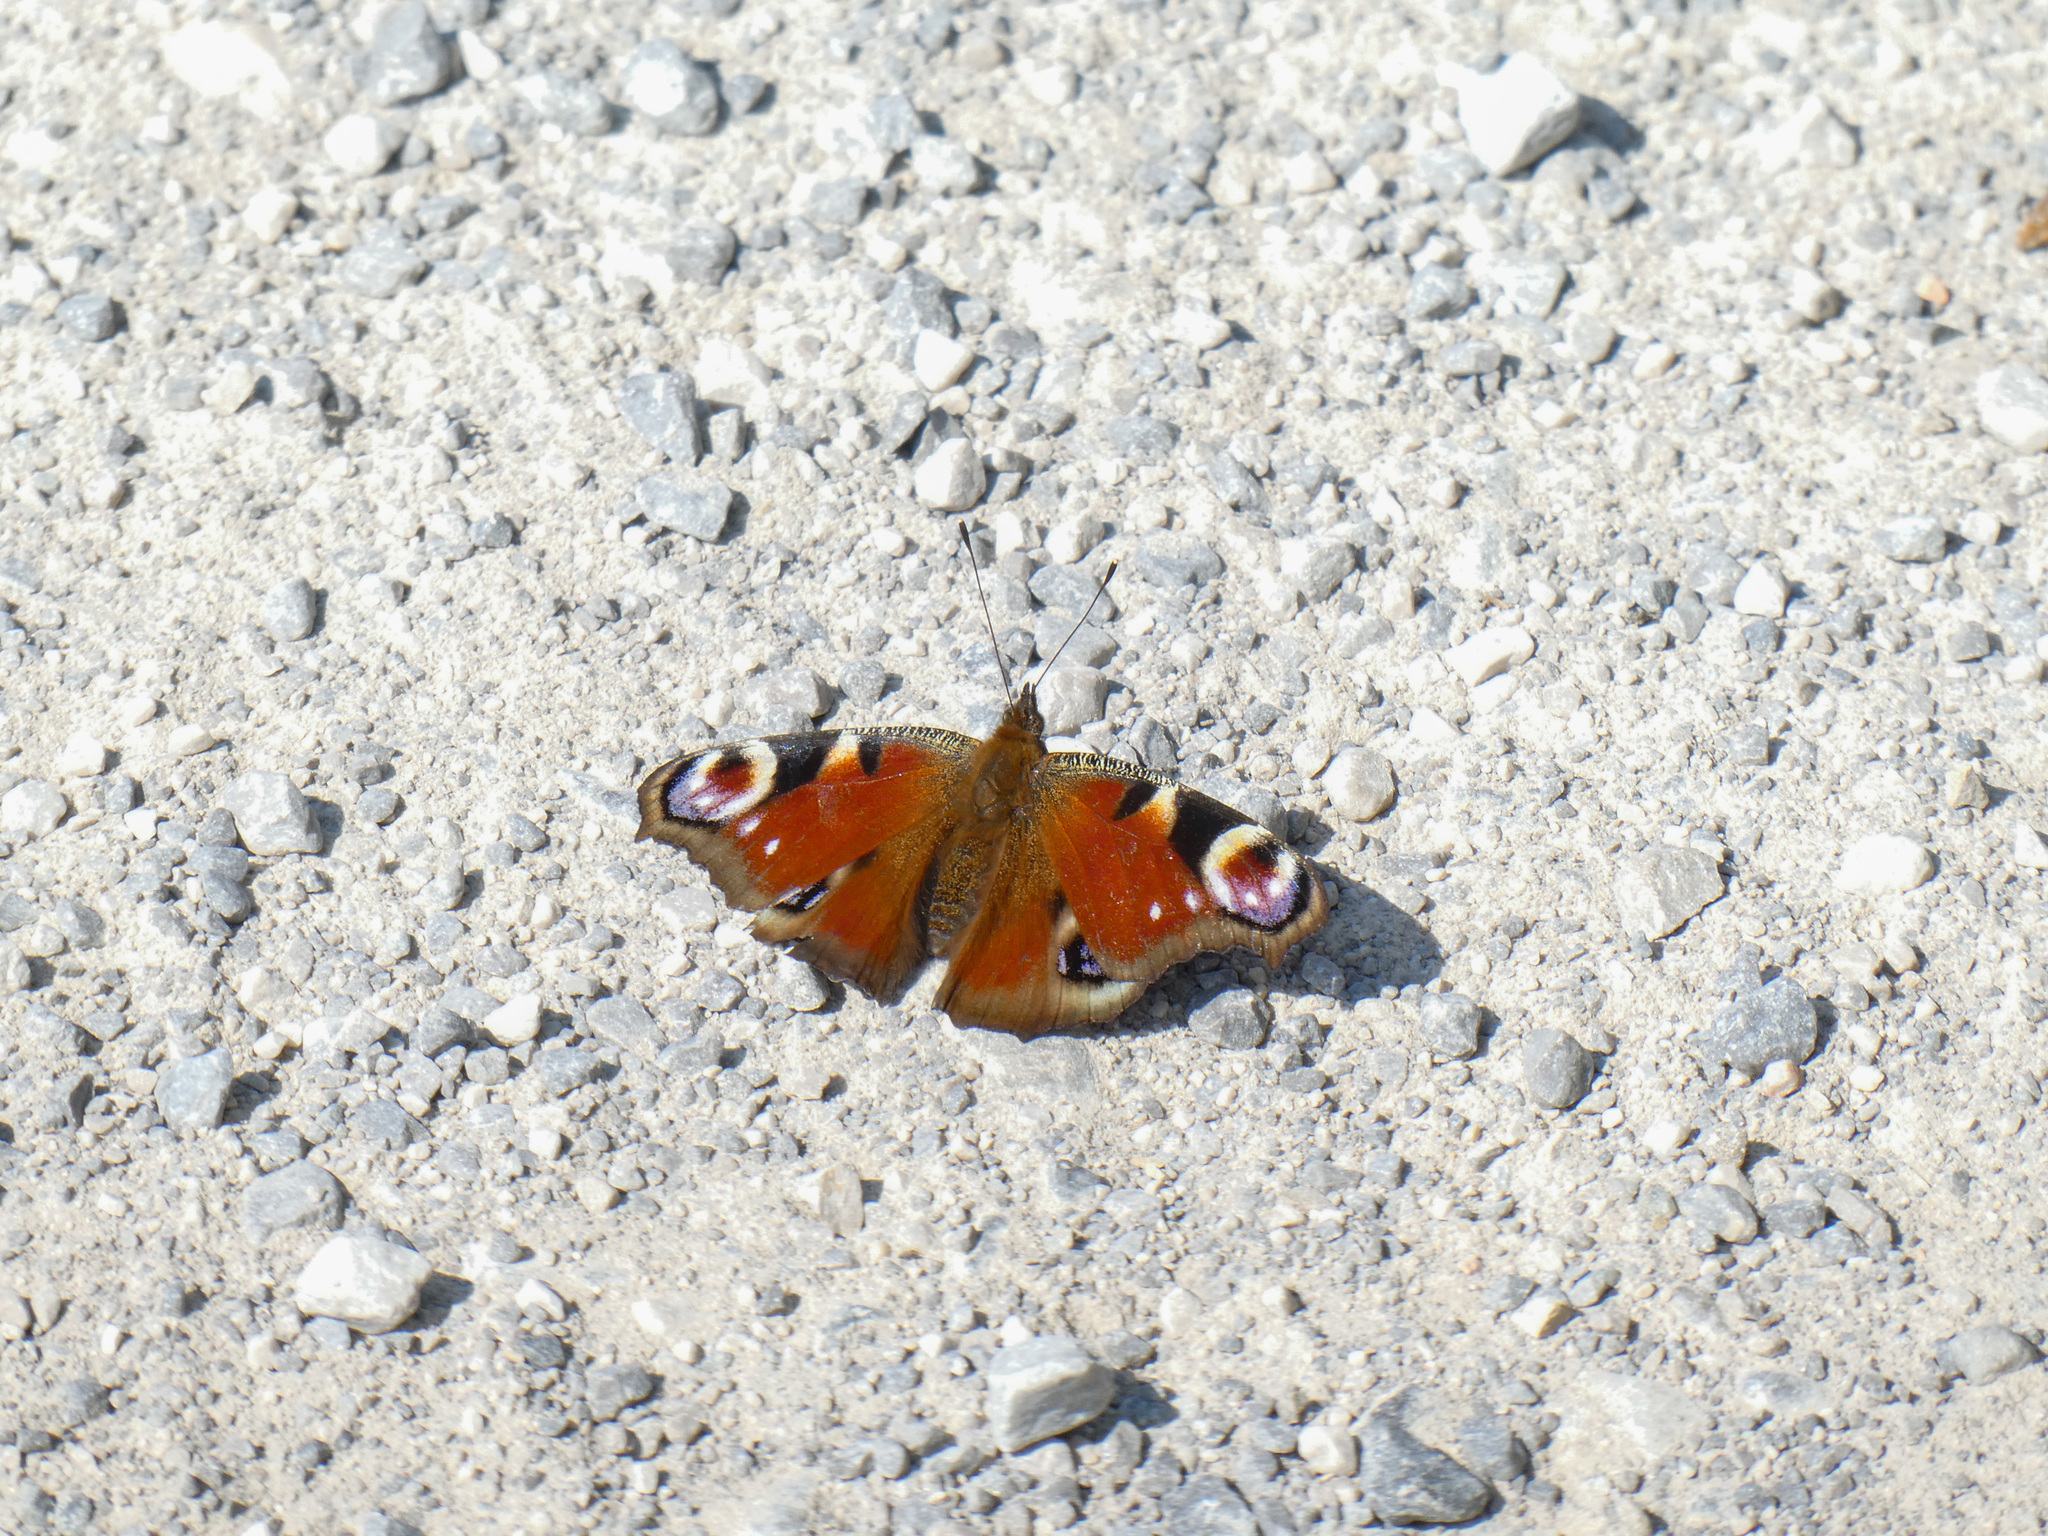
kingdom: Animalia
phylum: Arthropoda
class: Insecta
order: Lepidoptera
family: Nymphalidae
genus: Aglais
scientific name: Aglais io
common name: Peacock
